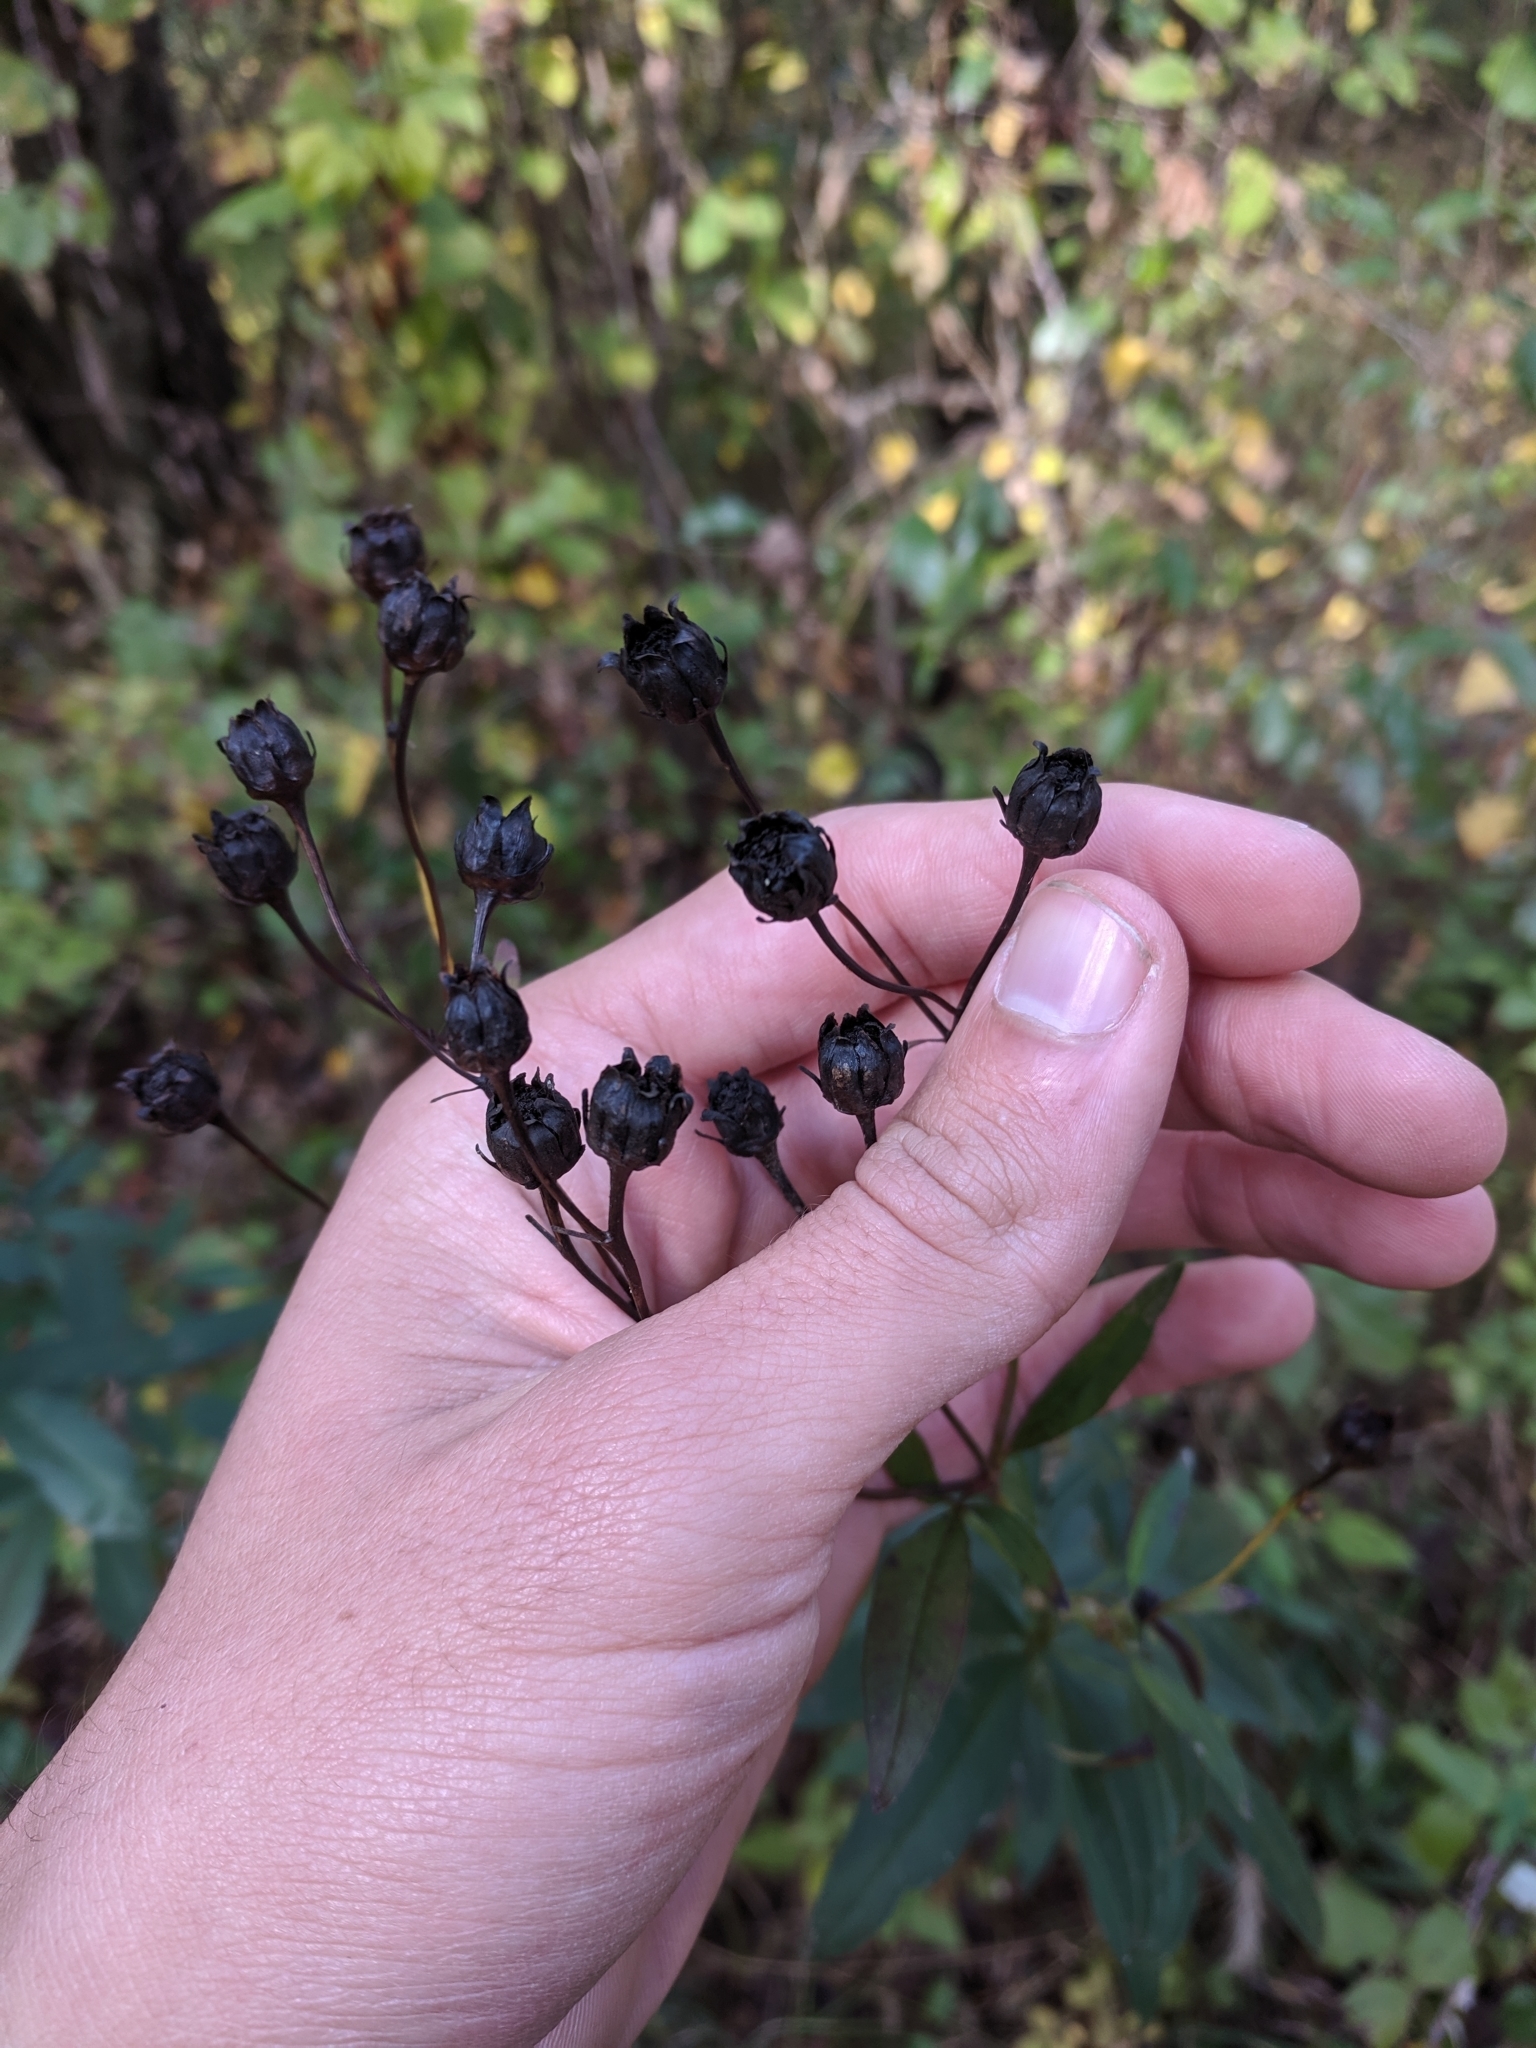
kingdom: Plantae
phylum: Tracheophyta
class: Magnoliopsida
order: Asterales
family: Asteraceae
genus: Coreopsis
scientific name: Coreopsis tripteris
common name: Tall coreopsis
